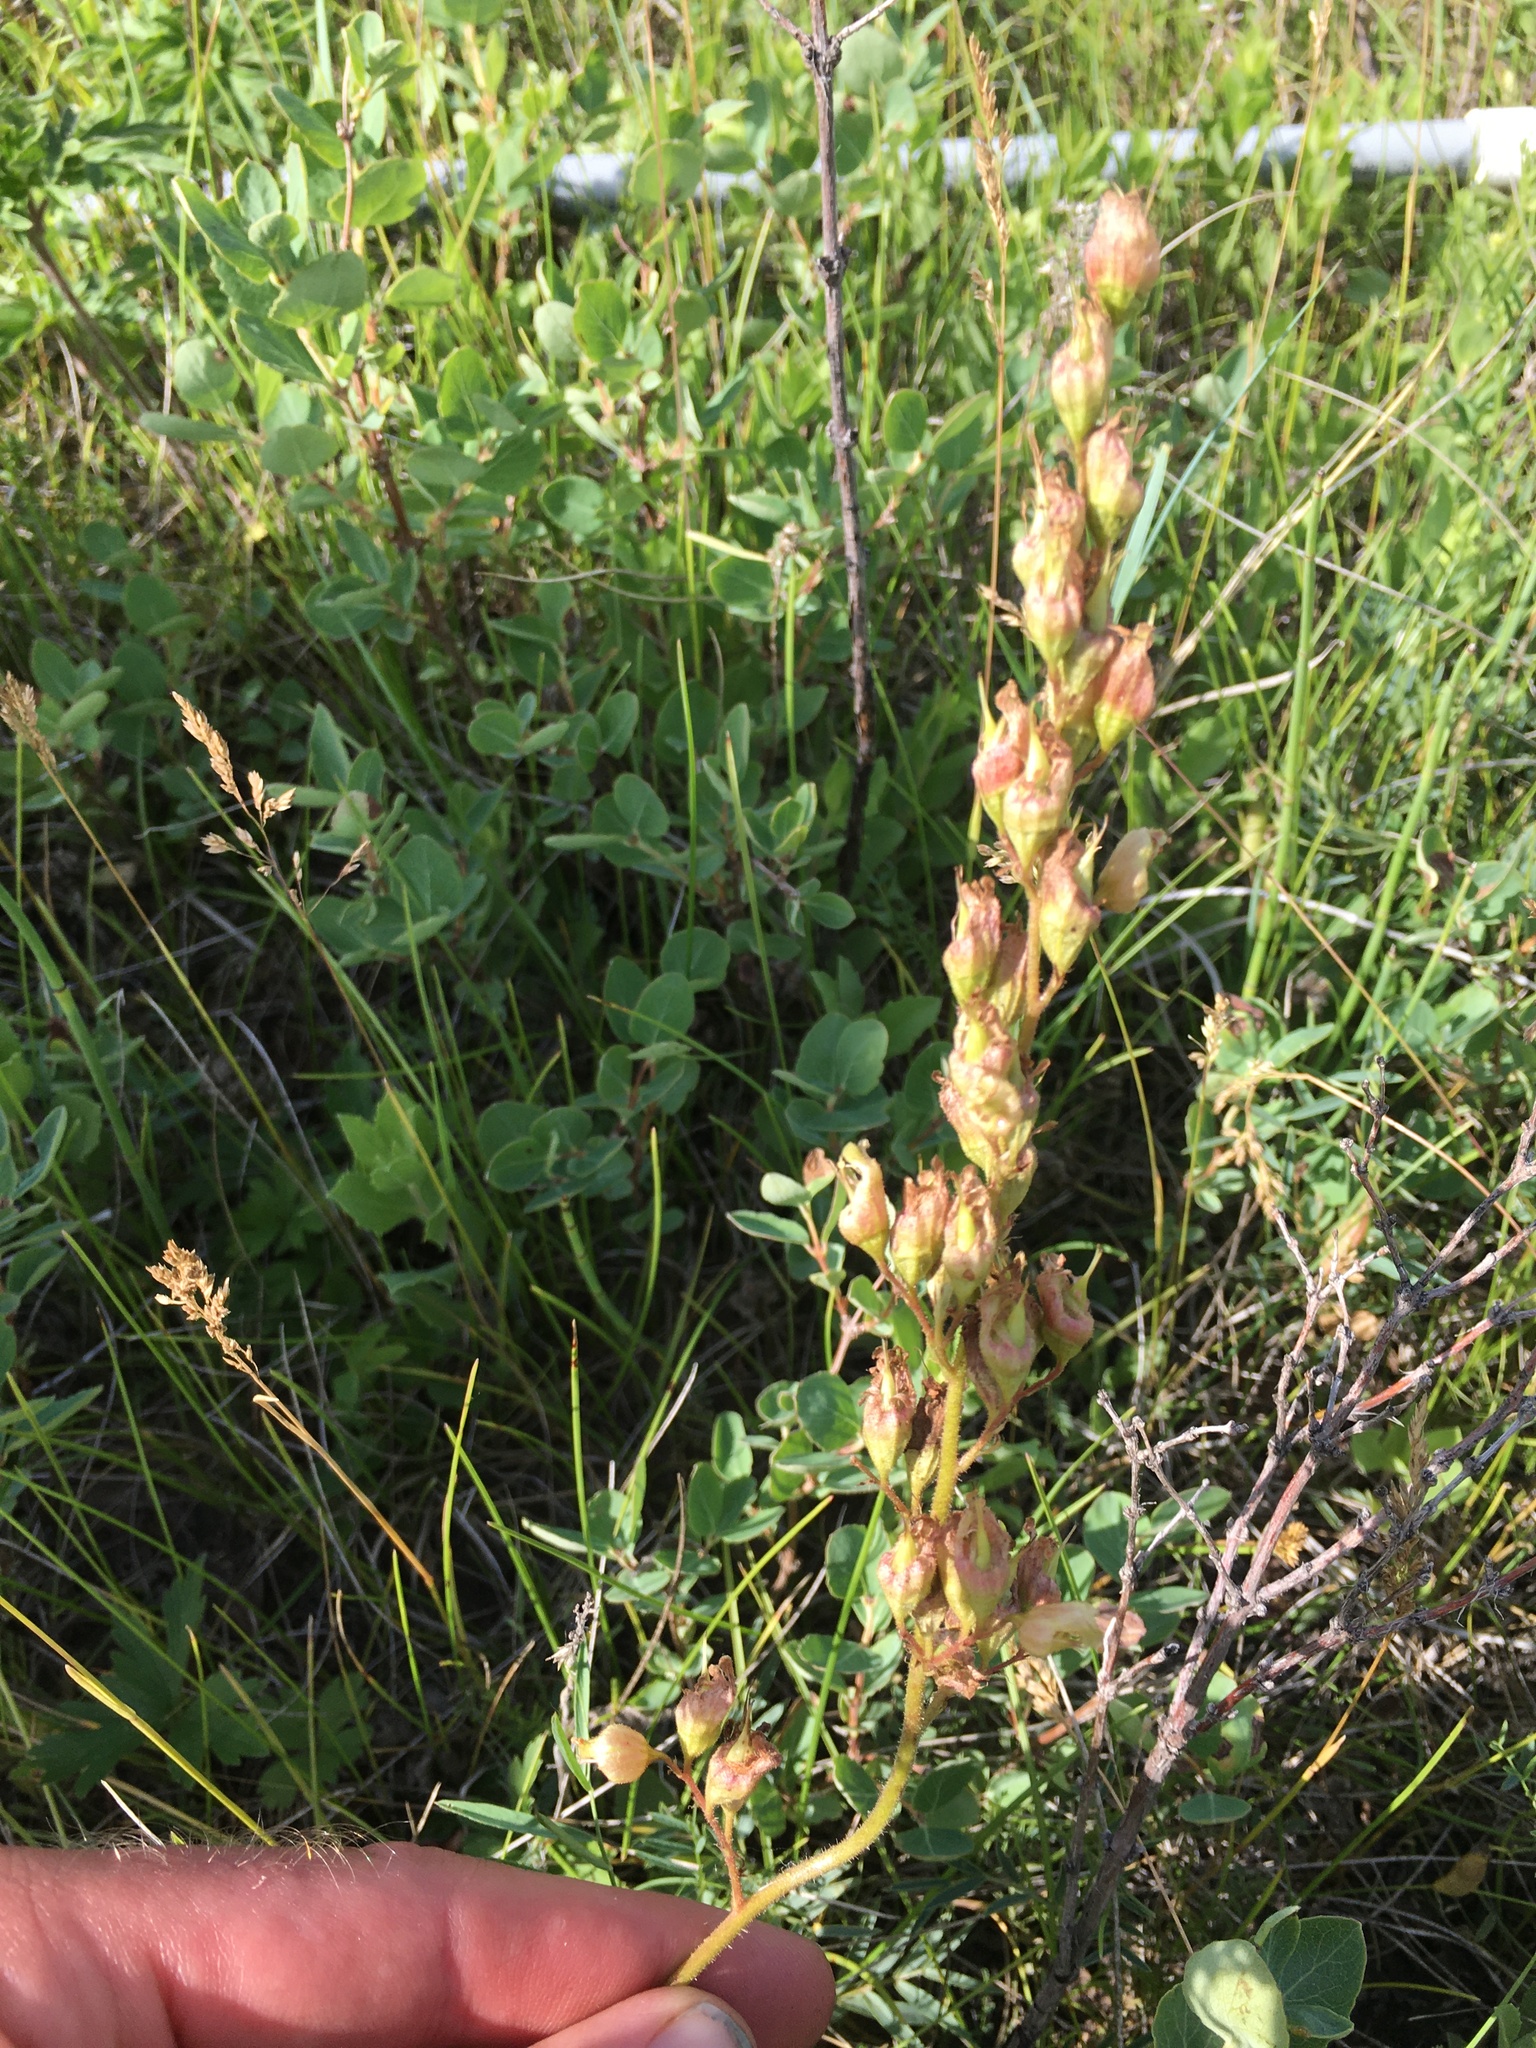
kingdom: Plantae
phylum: Tracheophyta
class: Magnoliopsida
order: Saxifragales
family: Saxifragaceae
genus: Heuchera
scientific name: Heuchera richardsonii
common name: Richardson's alumroot
